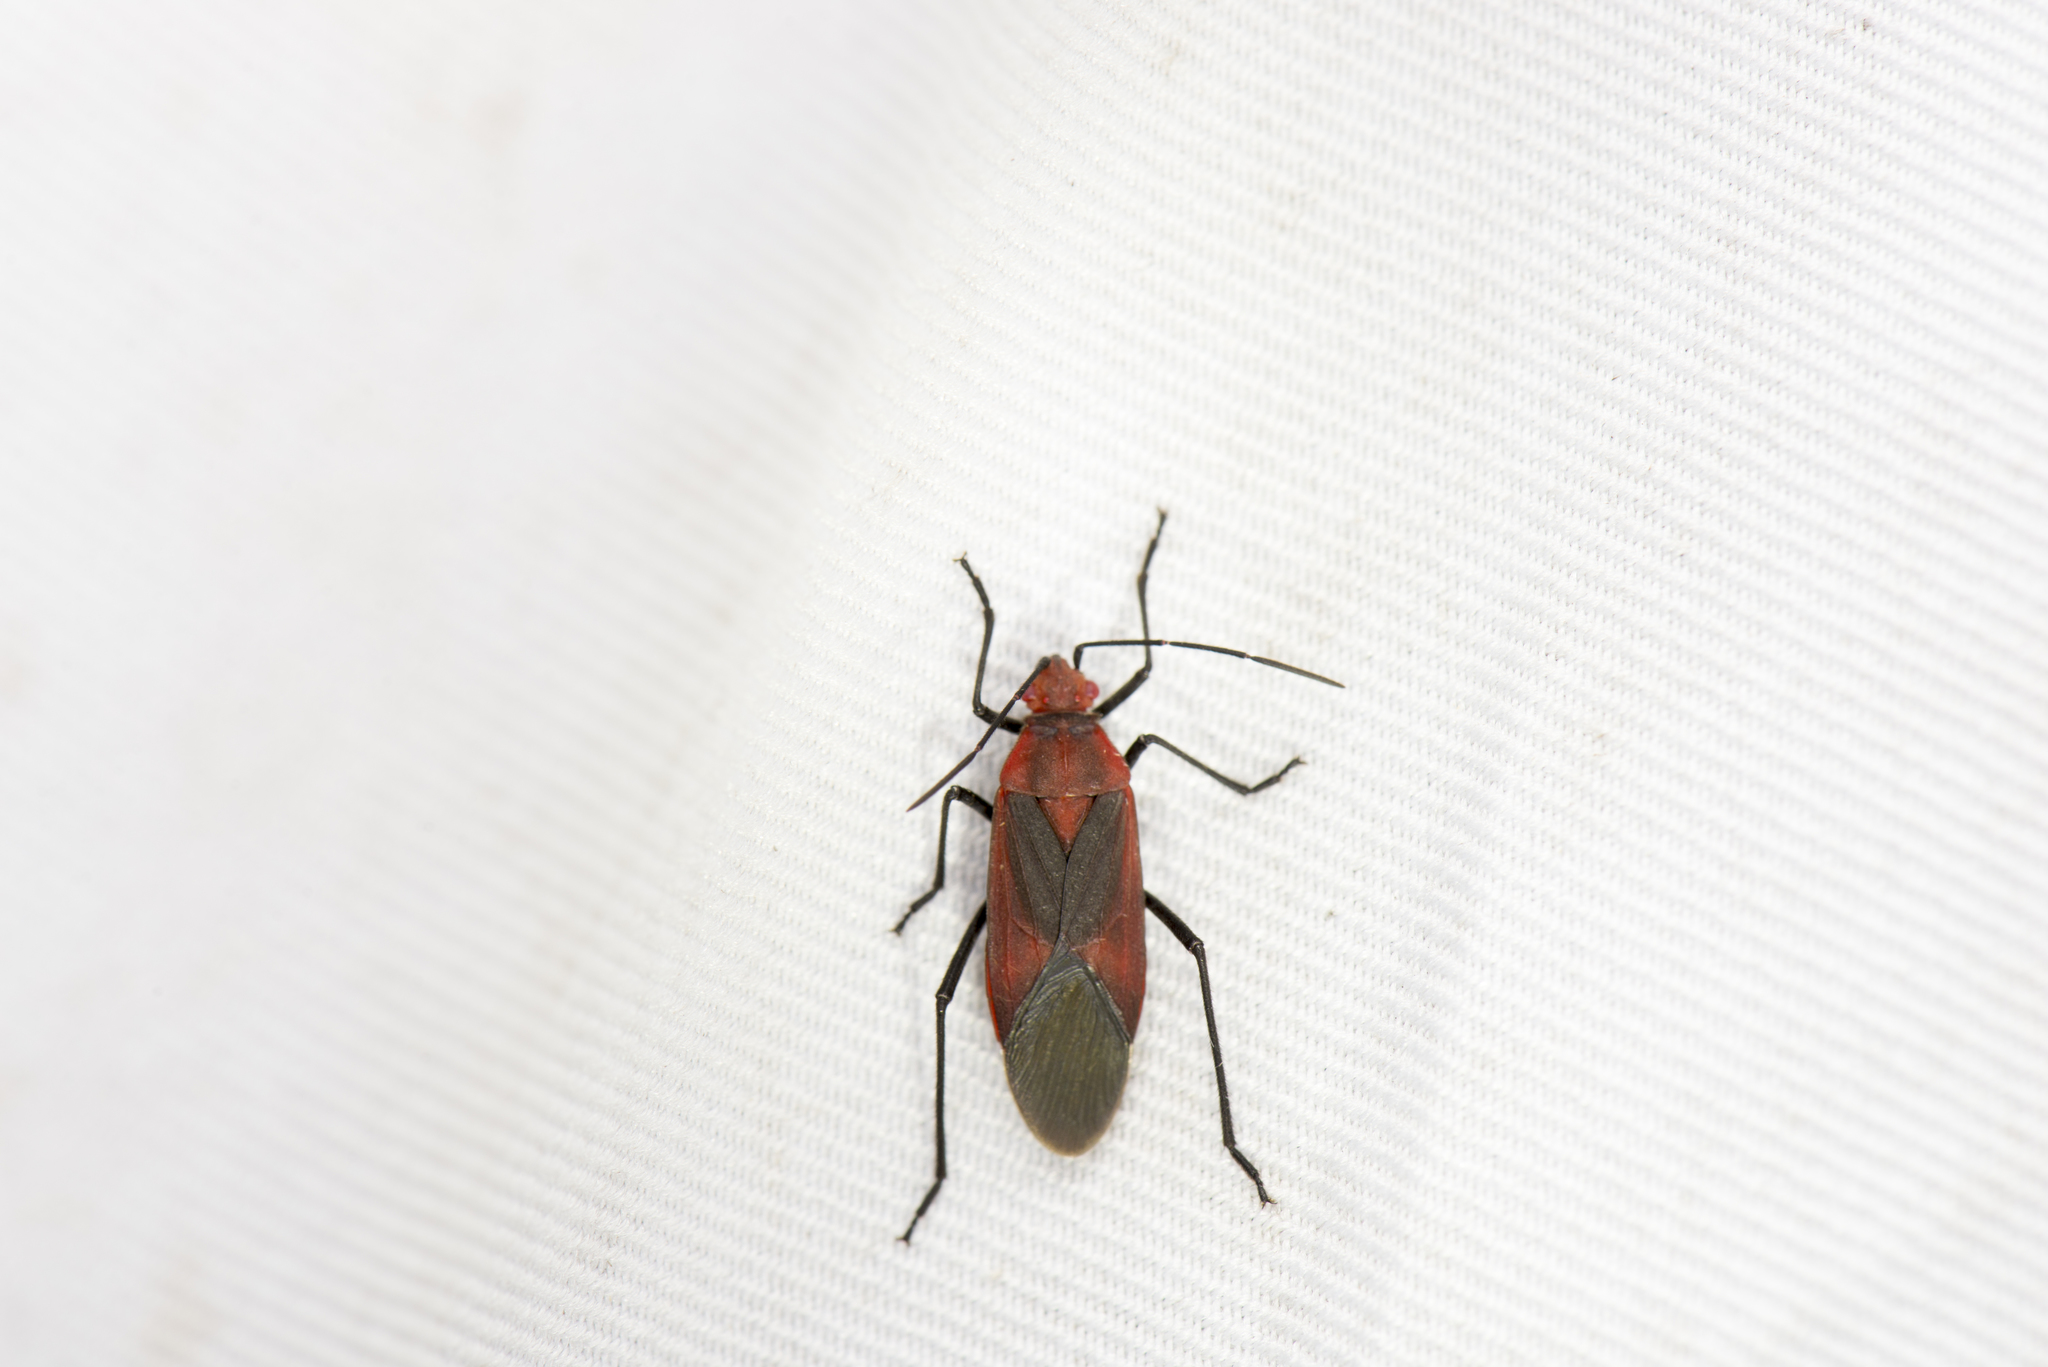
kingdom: Animalia
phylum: Arthropoda
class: Insecta
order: Hemiptera
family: Rhopalidae
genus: Leptocoris
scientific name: Leptocoris vicinus
